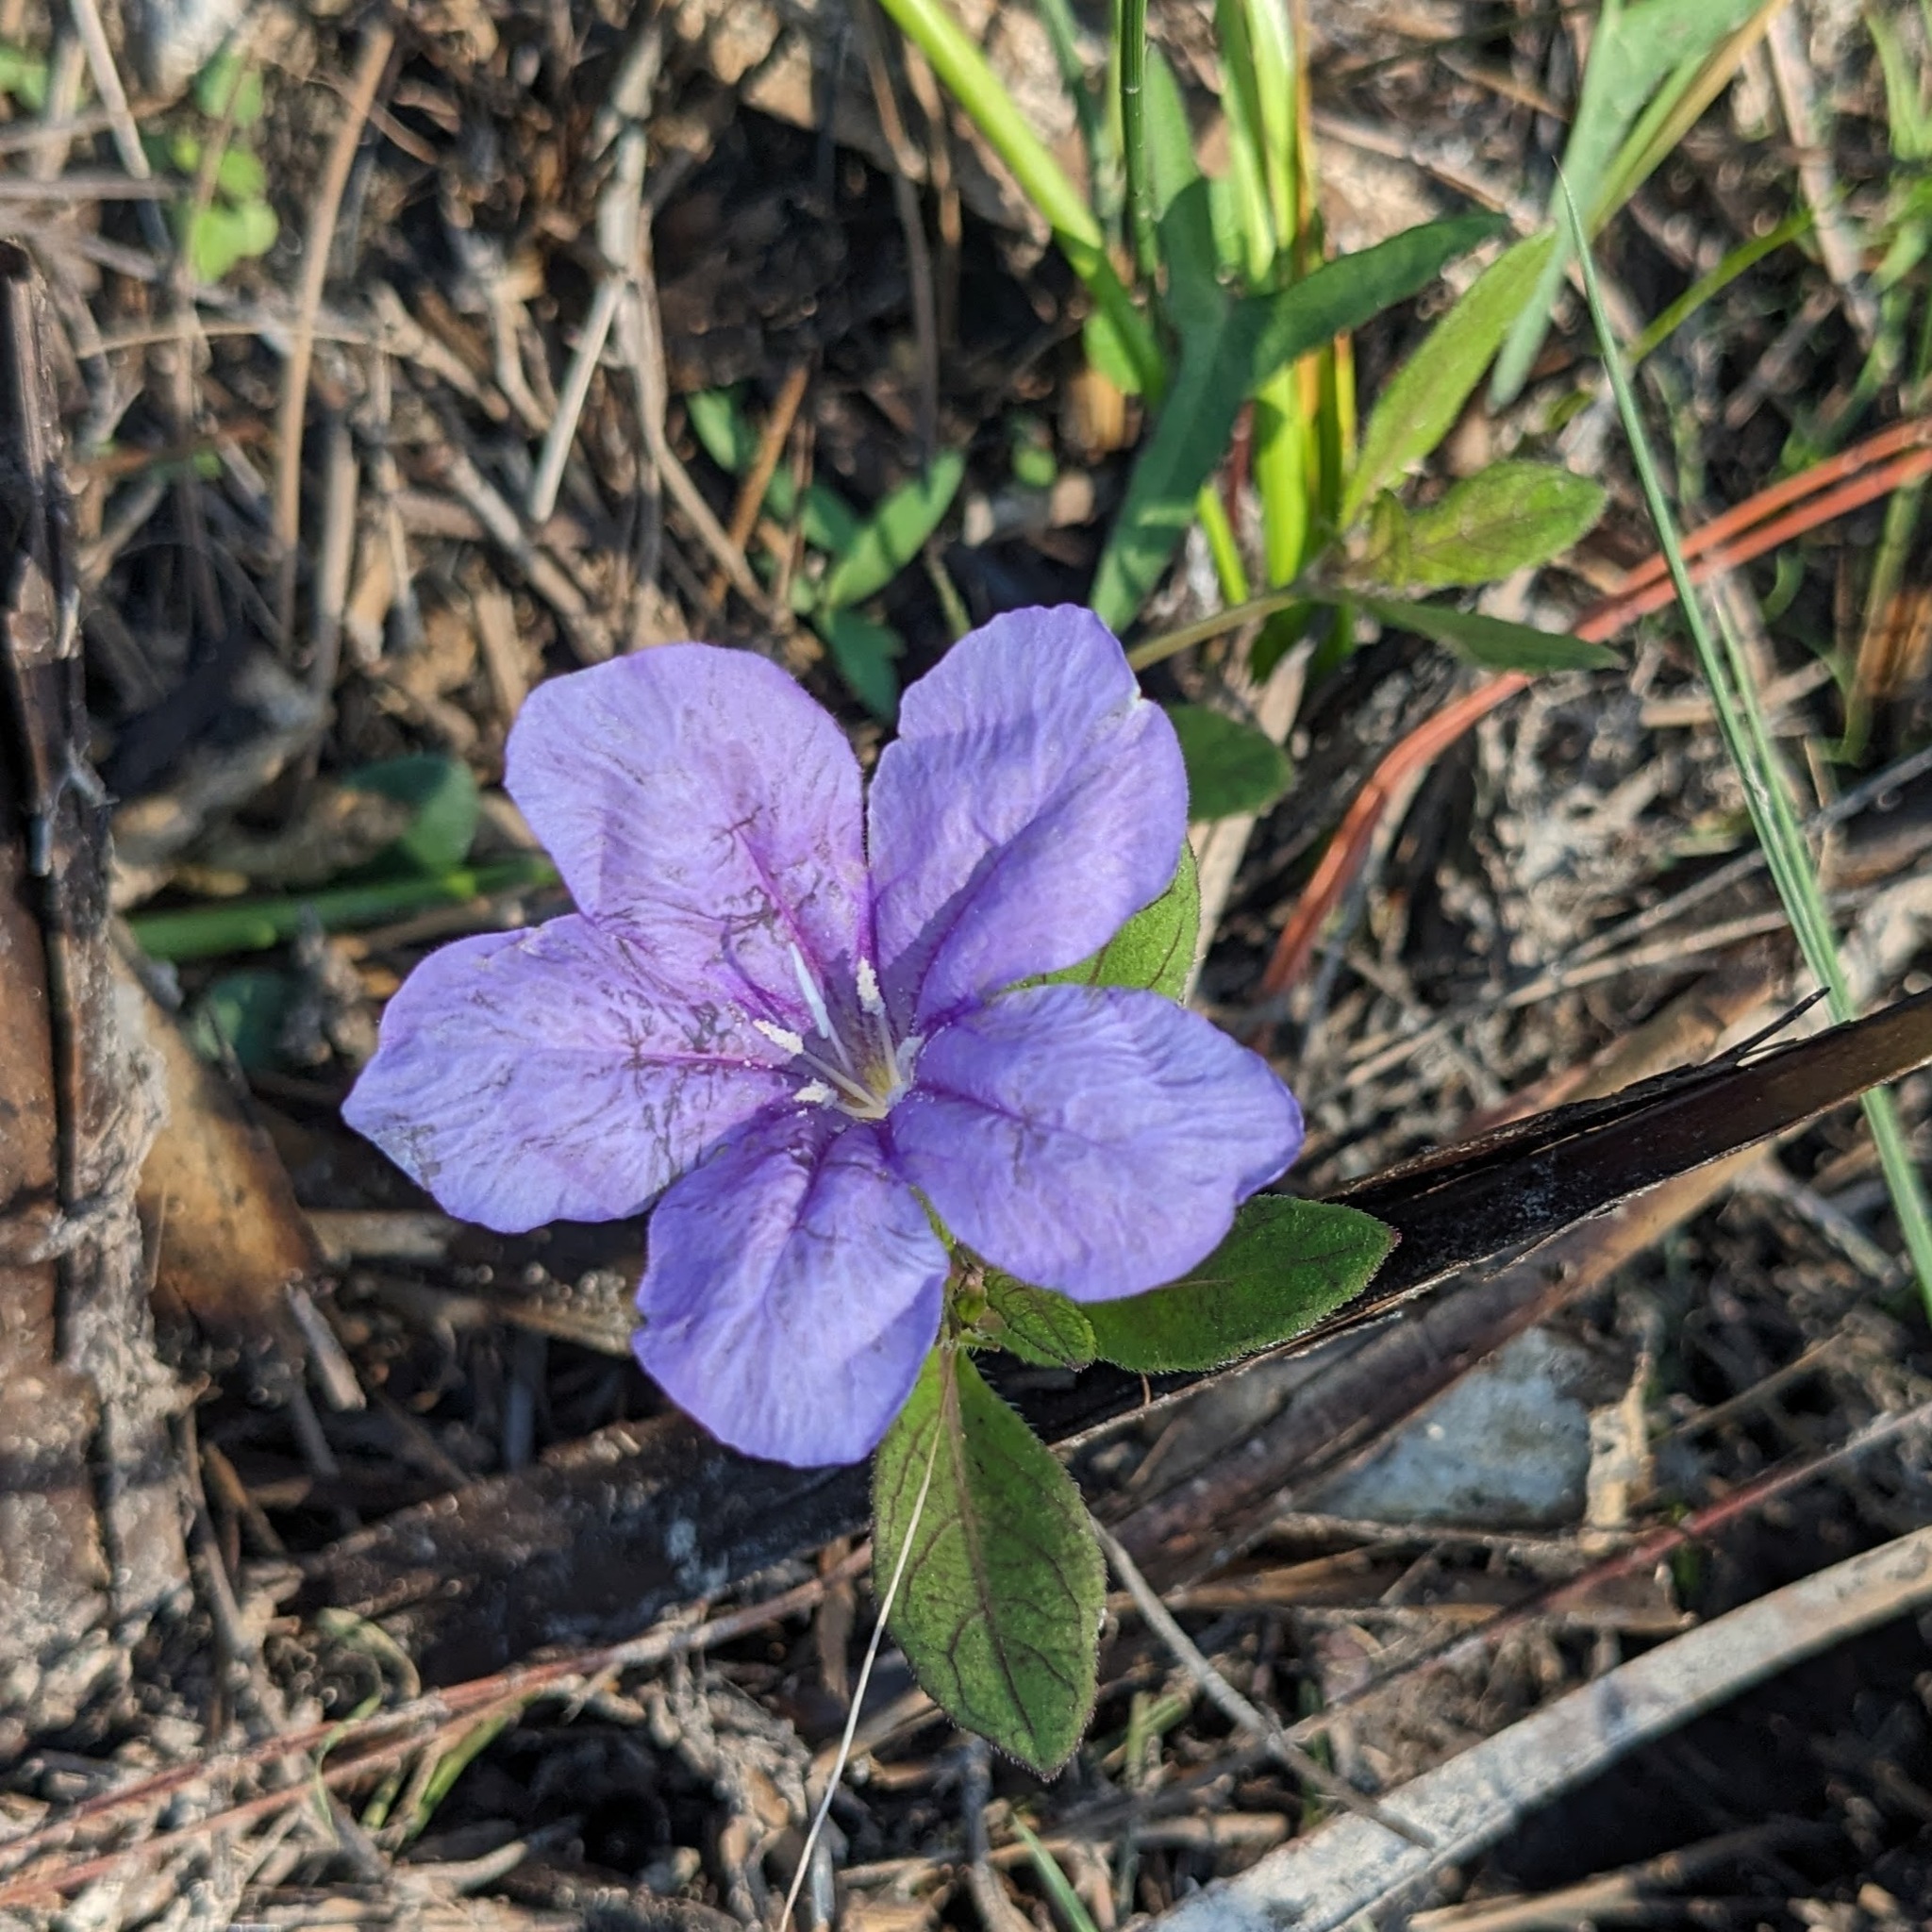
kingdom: Plantae
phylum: Tracheophyta
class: Magnoliopsida
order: Lamiales
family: Acanthaceae
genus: Ruellia
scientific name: Ruellia caroliniensis
